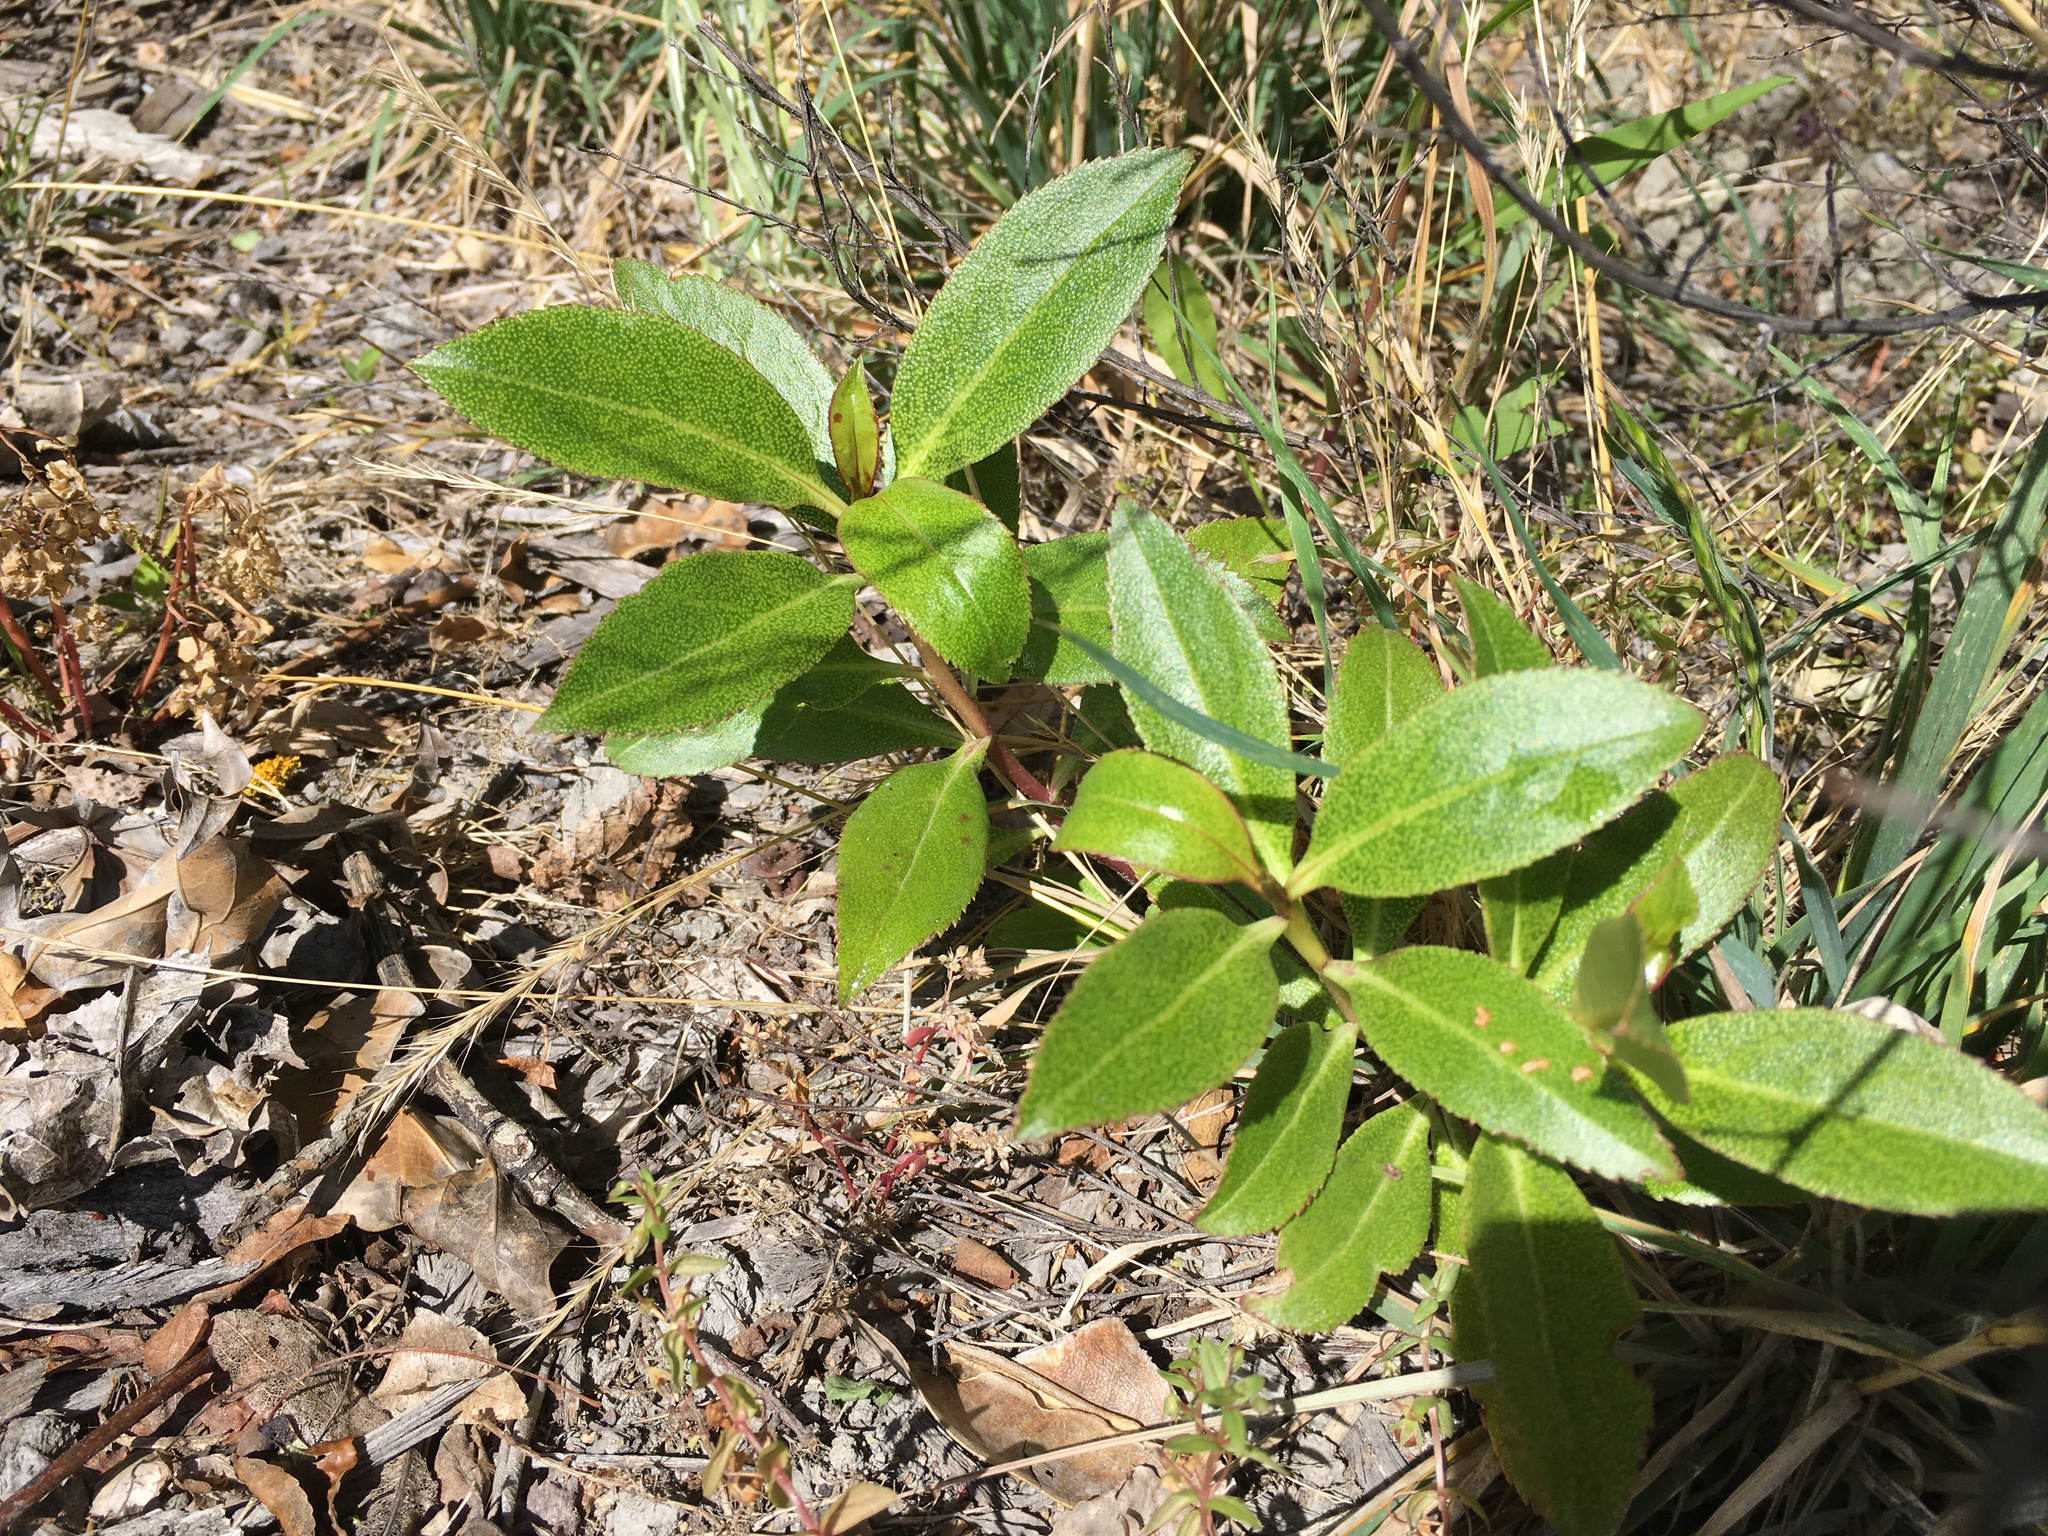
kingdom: Plantae
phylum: Tracheophyta
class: Magnoliopsida
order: Lamiales
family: Scrophulariaceae
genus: Myoporum
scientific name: Myoporum laetum
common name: Ngaio tree
